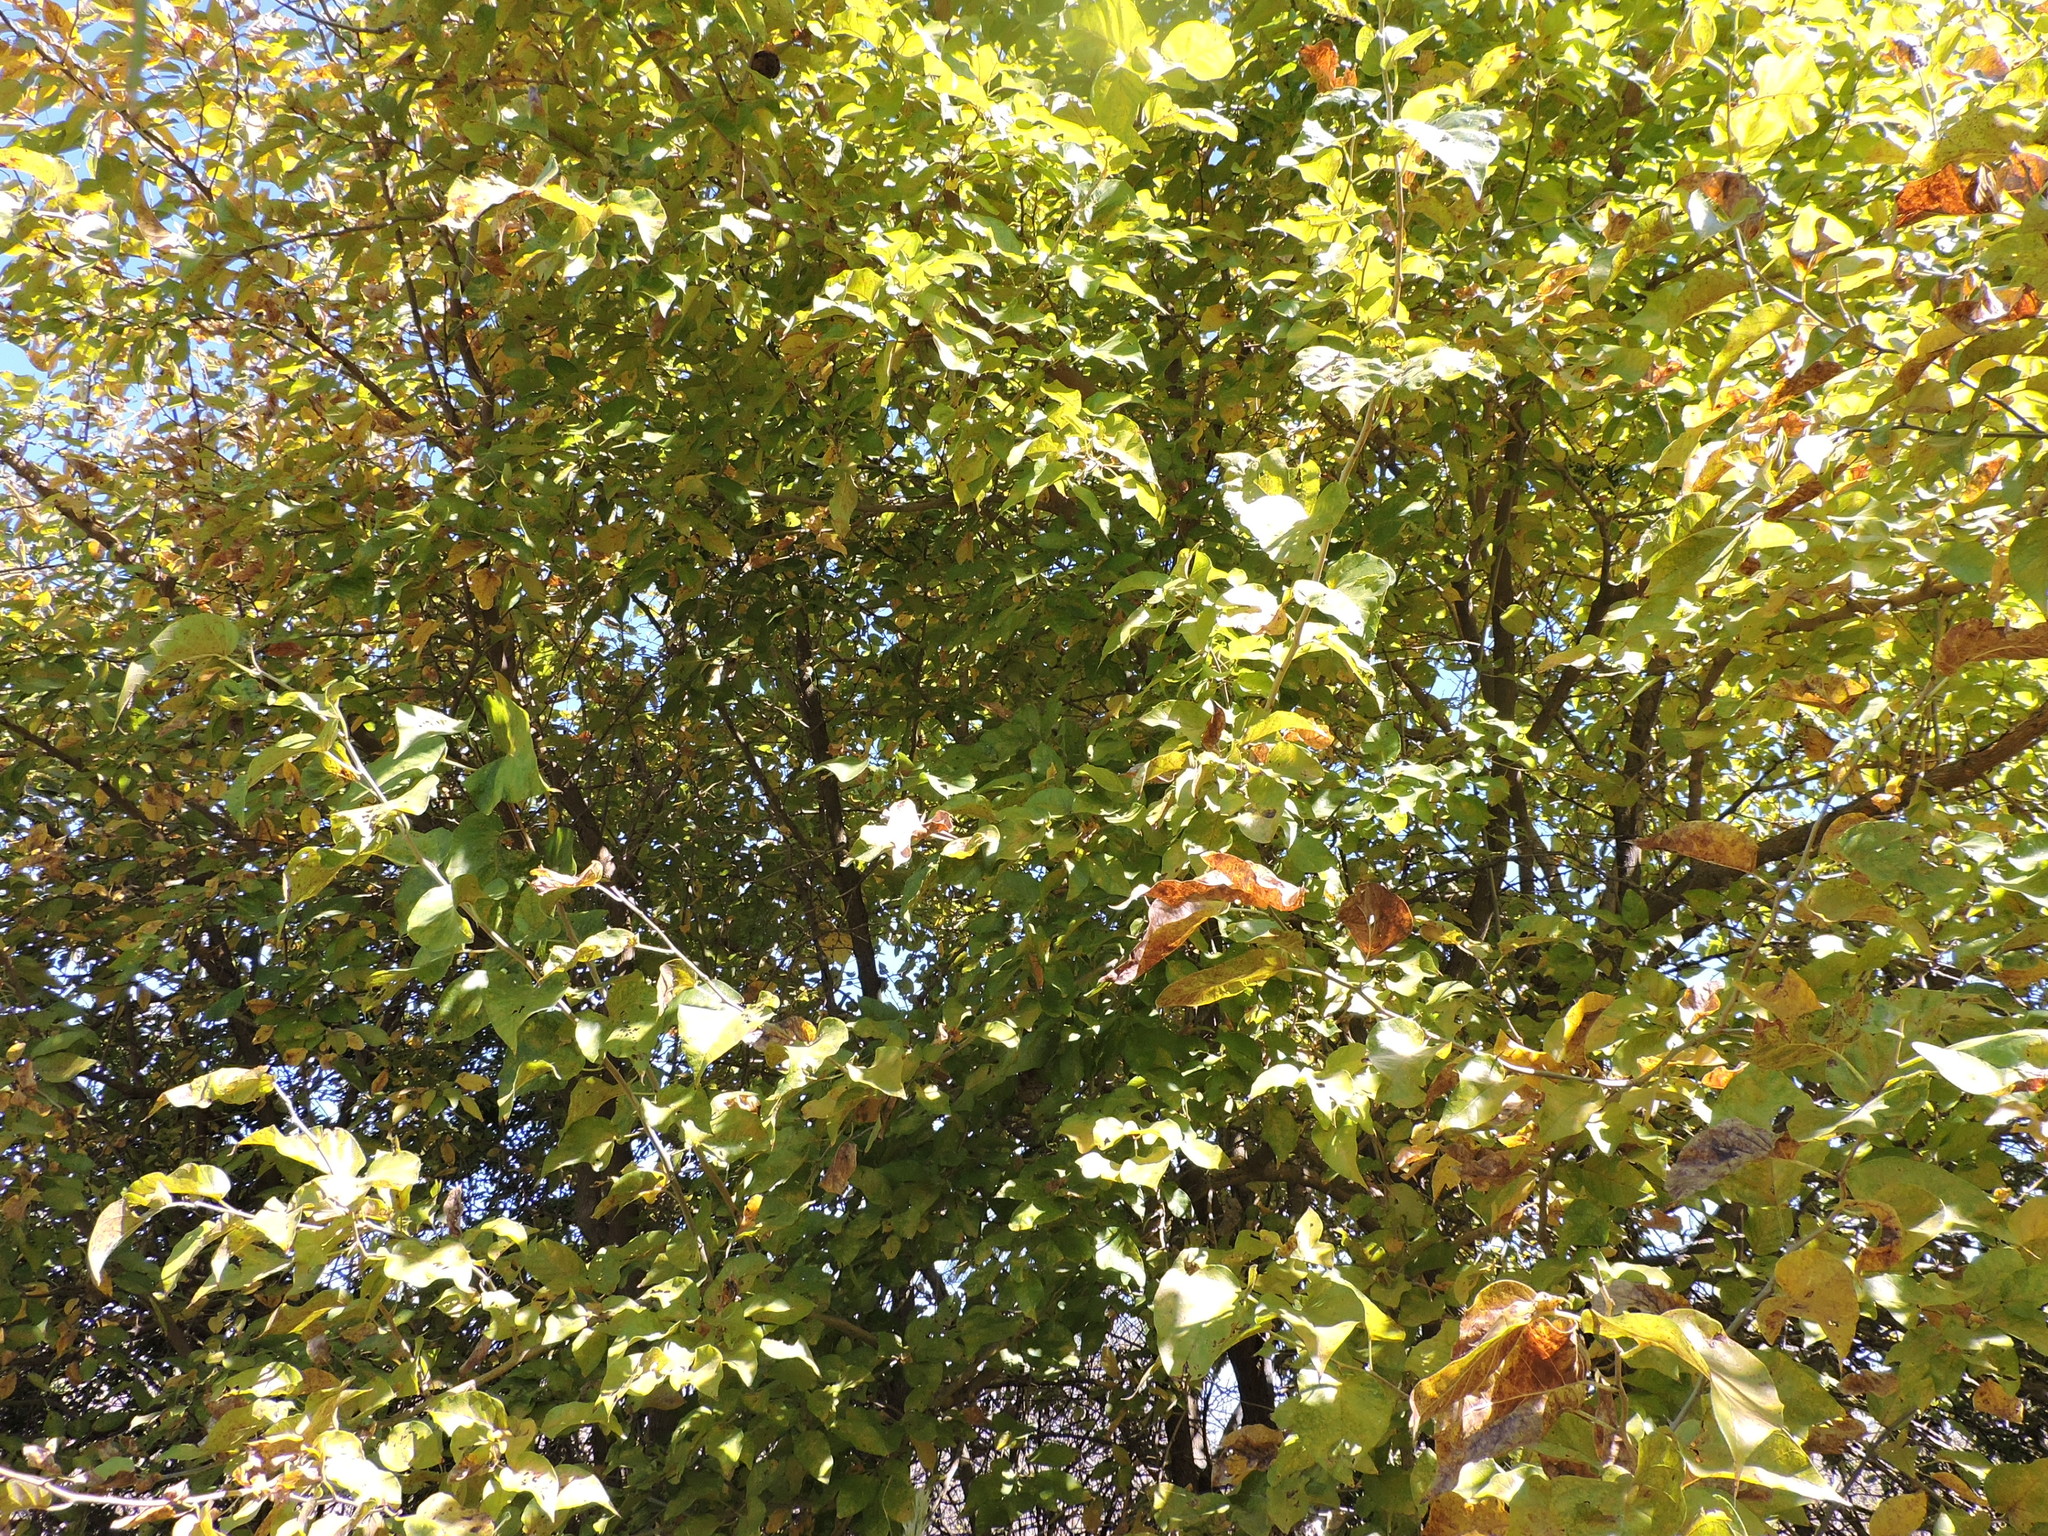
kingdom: Plantae
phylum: Tracheophyta
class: Magnoliopsida
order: Rosales
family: Moraceae
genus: Maclura
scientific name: Maclura pomifera
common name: Osage-orange
